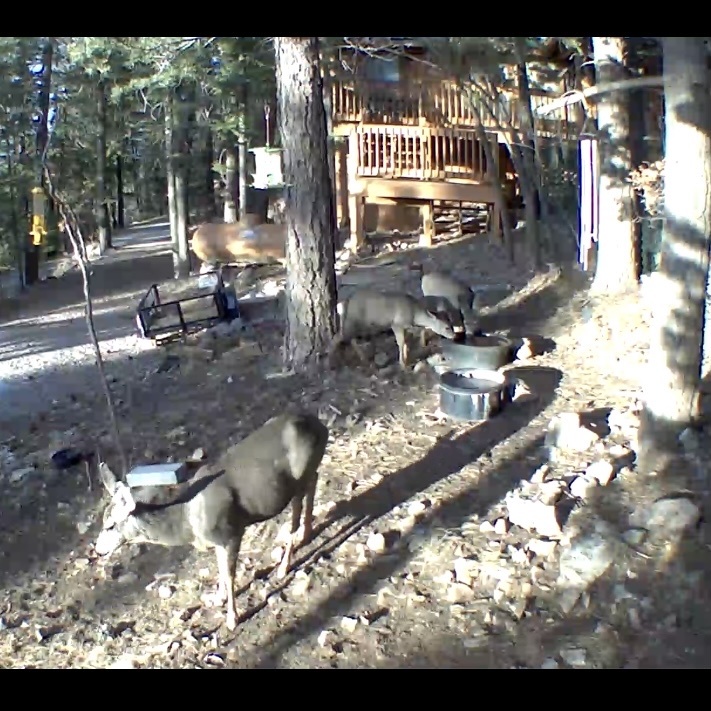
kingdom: Animalia
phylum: Chordata
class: Mammalia
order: Artiodactyla
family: Cervidae
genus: Odocoileus
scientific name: Odocoileus hemionus
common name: Mule deer
